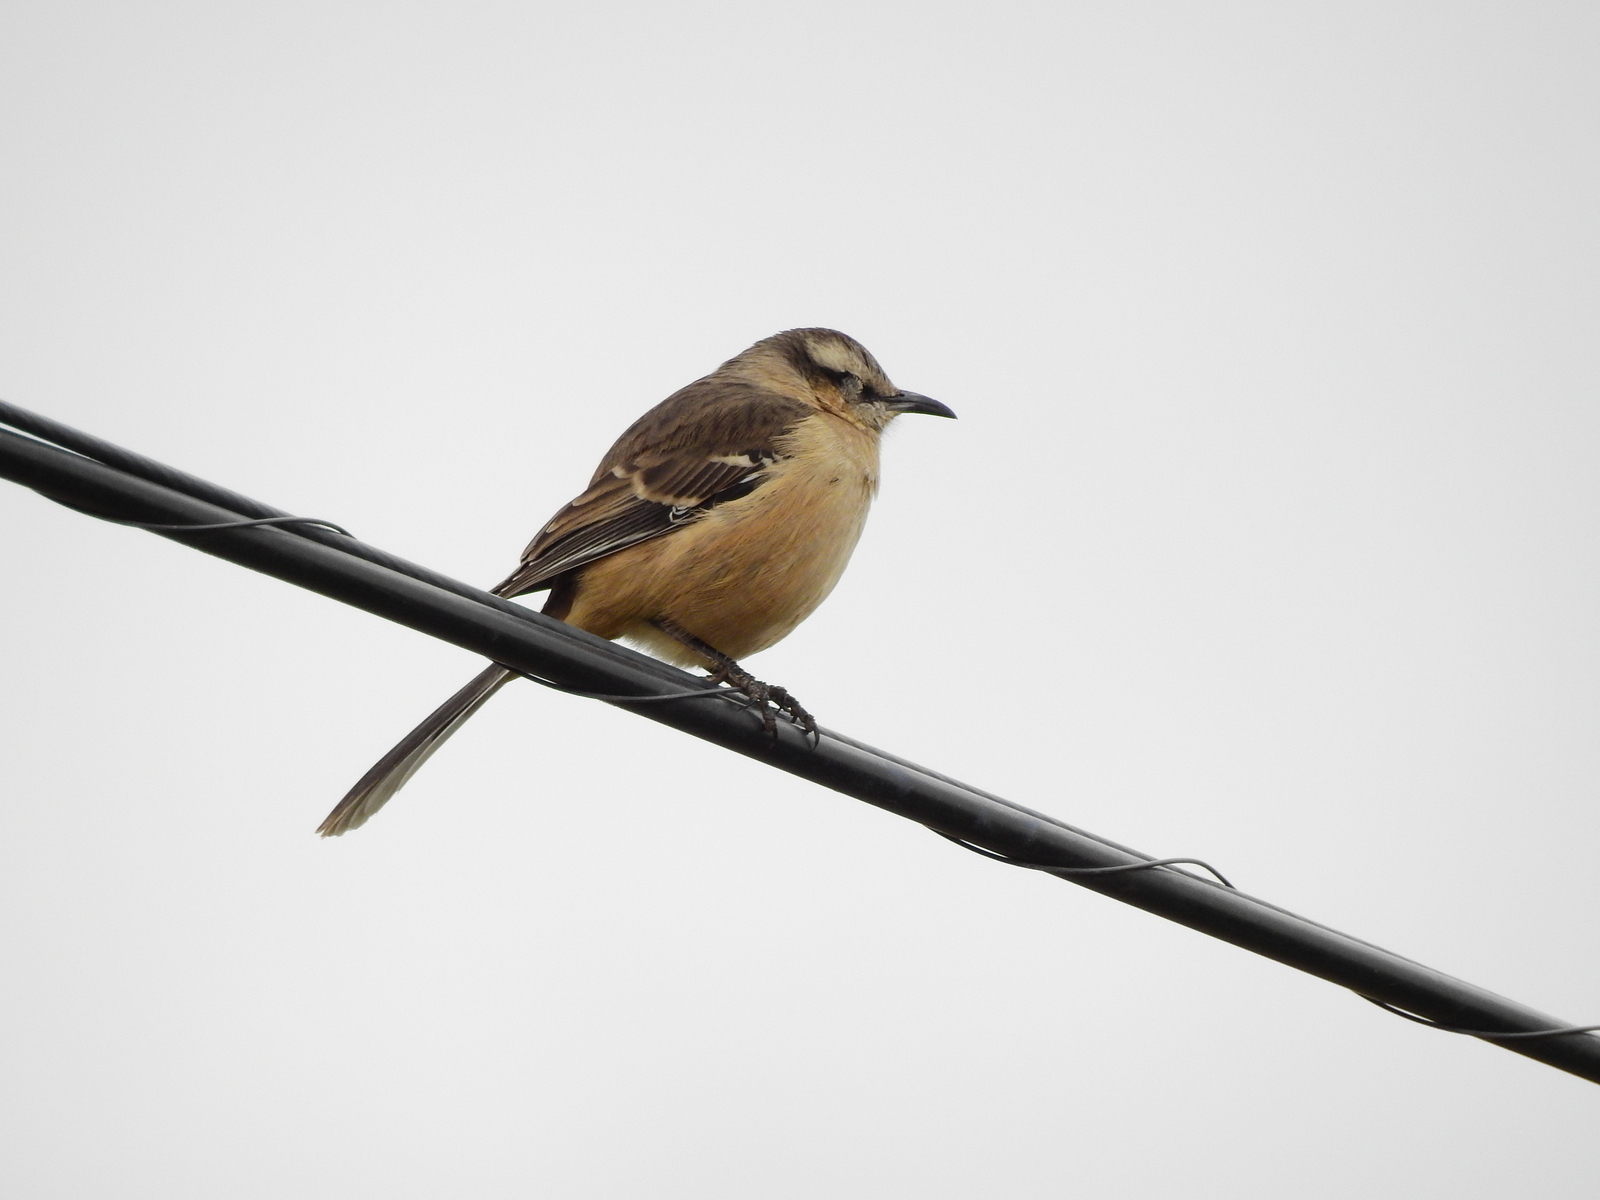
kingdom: Animalia
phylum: Chordata
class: Aves
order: Passeriformes
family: Mimidae
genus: Mimus
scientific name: Mimus saturninus
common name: Chalk-browed mockingbird
